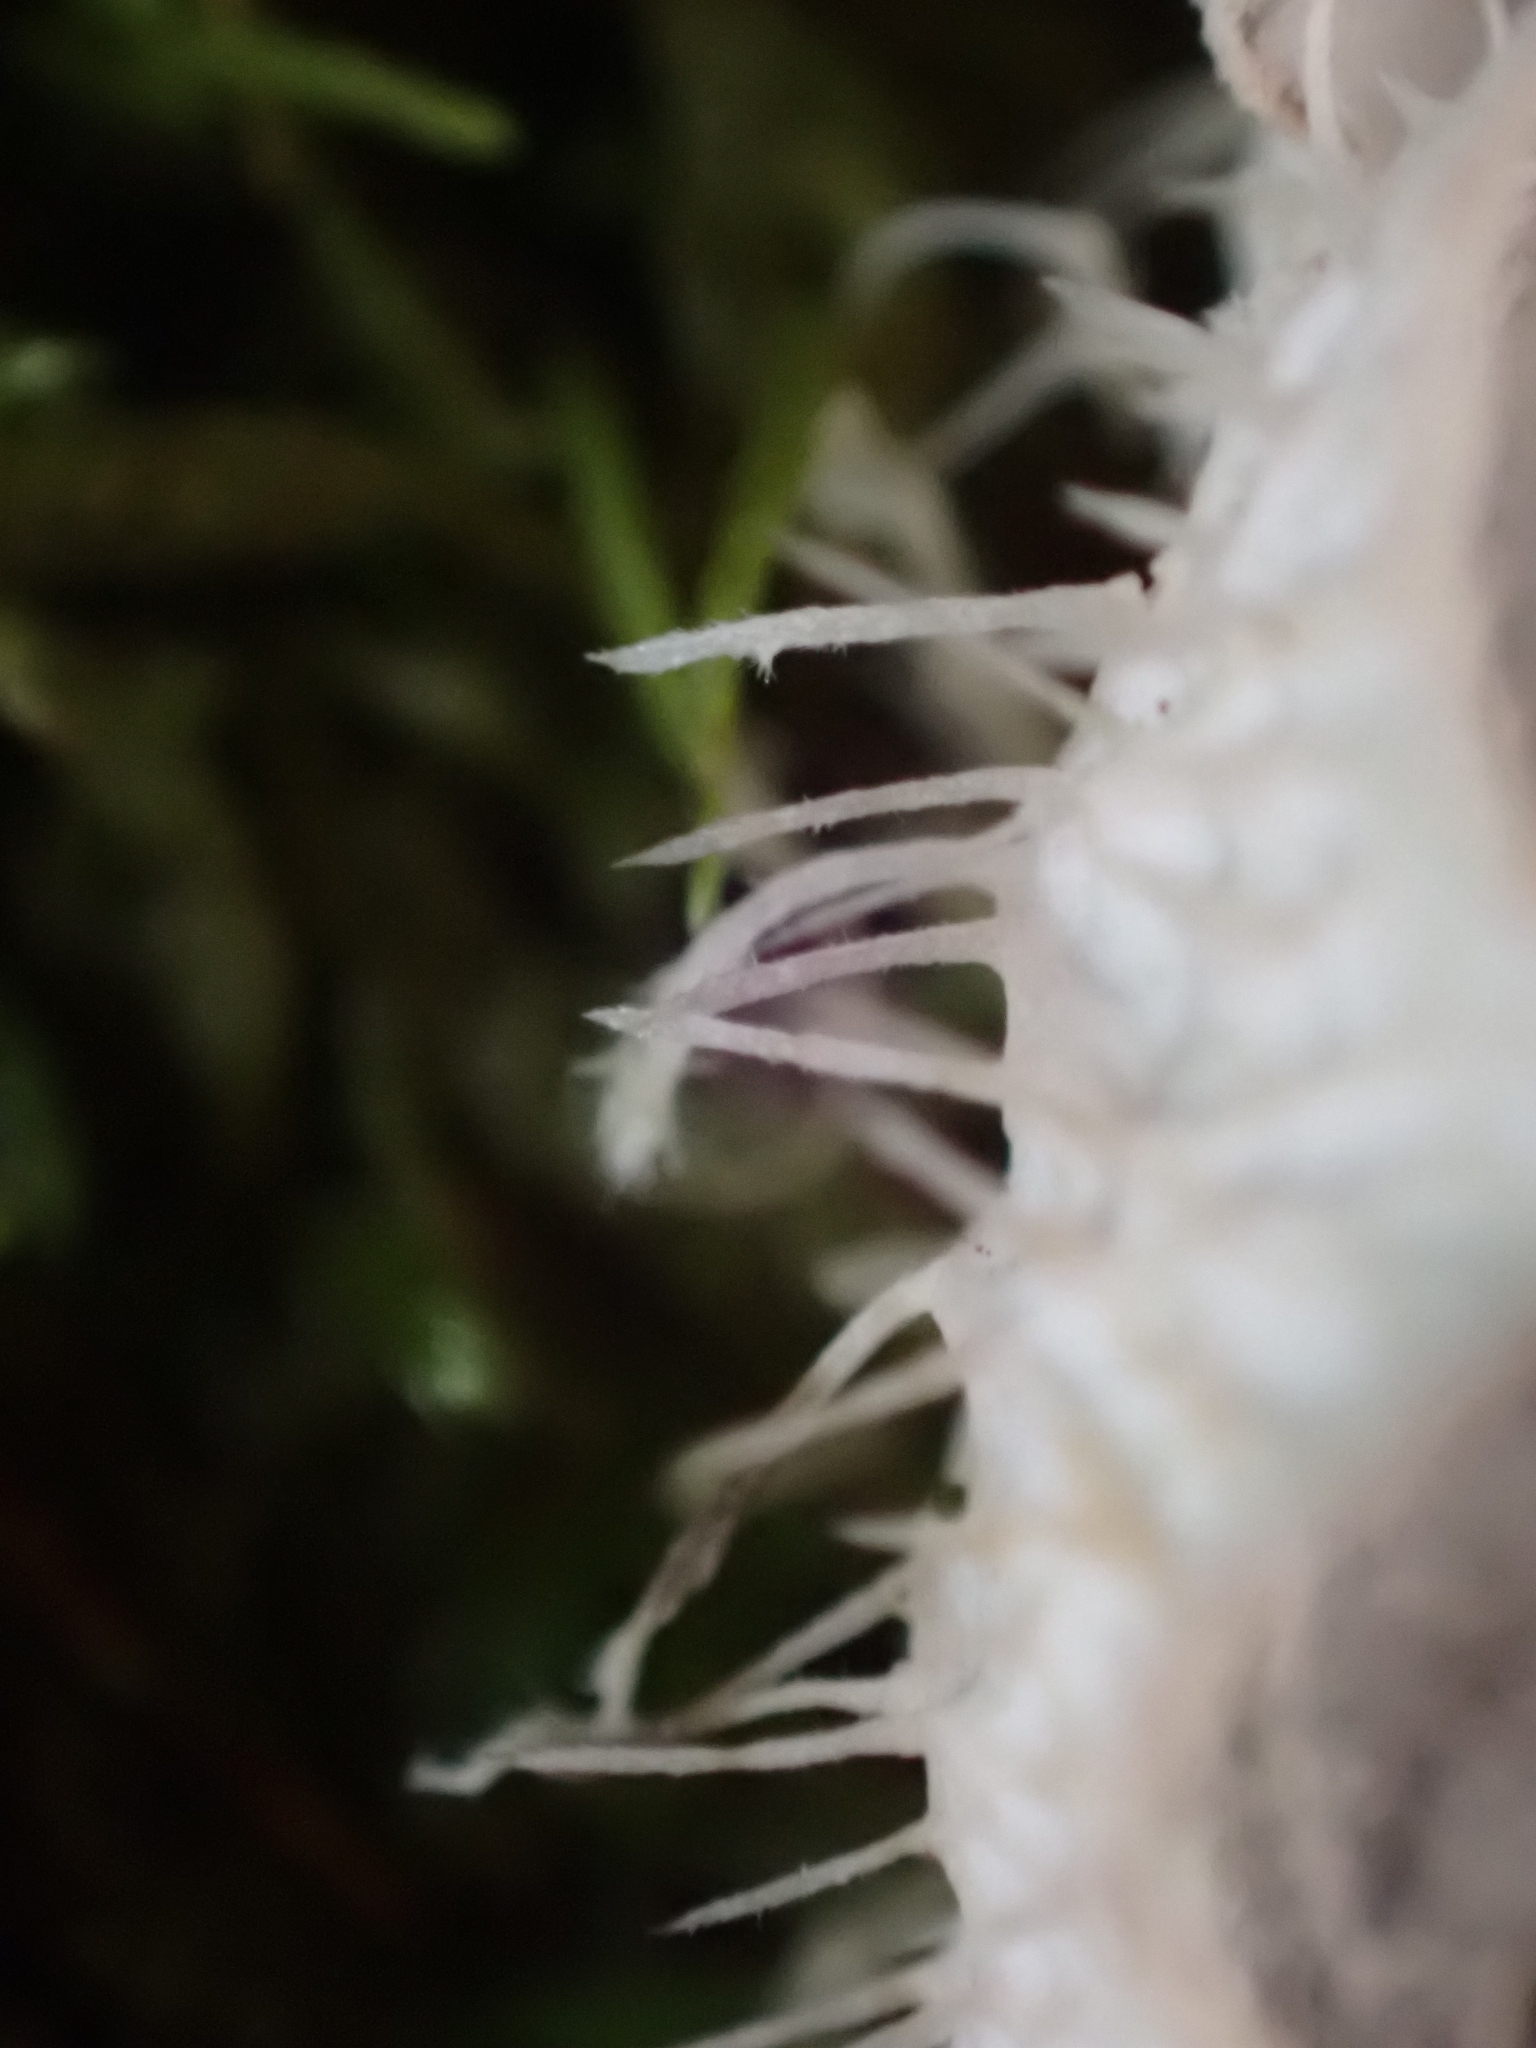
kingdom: Fungi
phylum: Ascomycota
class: Lecanoromycetes
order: Peltigerales
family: Peltigeraceae
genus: Peltigera
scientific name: Peltigera praetextata
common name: Scaly dog-lichen
